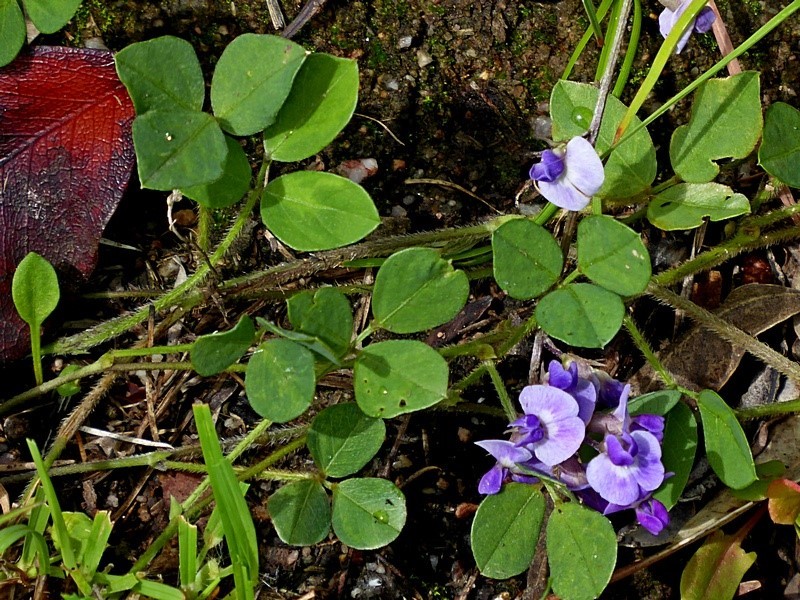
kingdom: Plantae
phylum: Tracheophyta
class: Magnoliopsida
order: Fabales
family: Fabaceae
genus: Glycine
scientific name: Glycine tabacina
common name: Pea glycine
